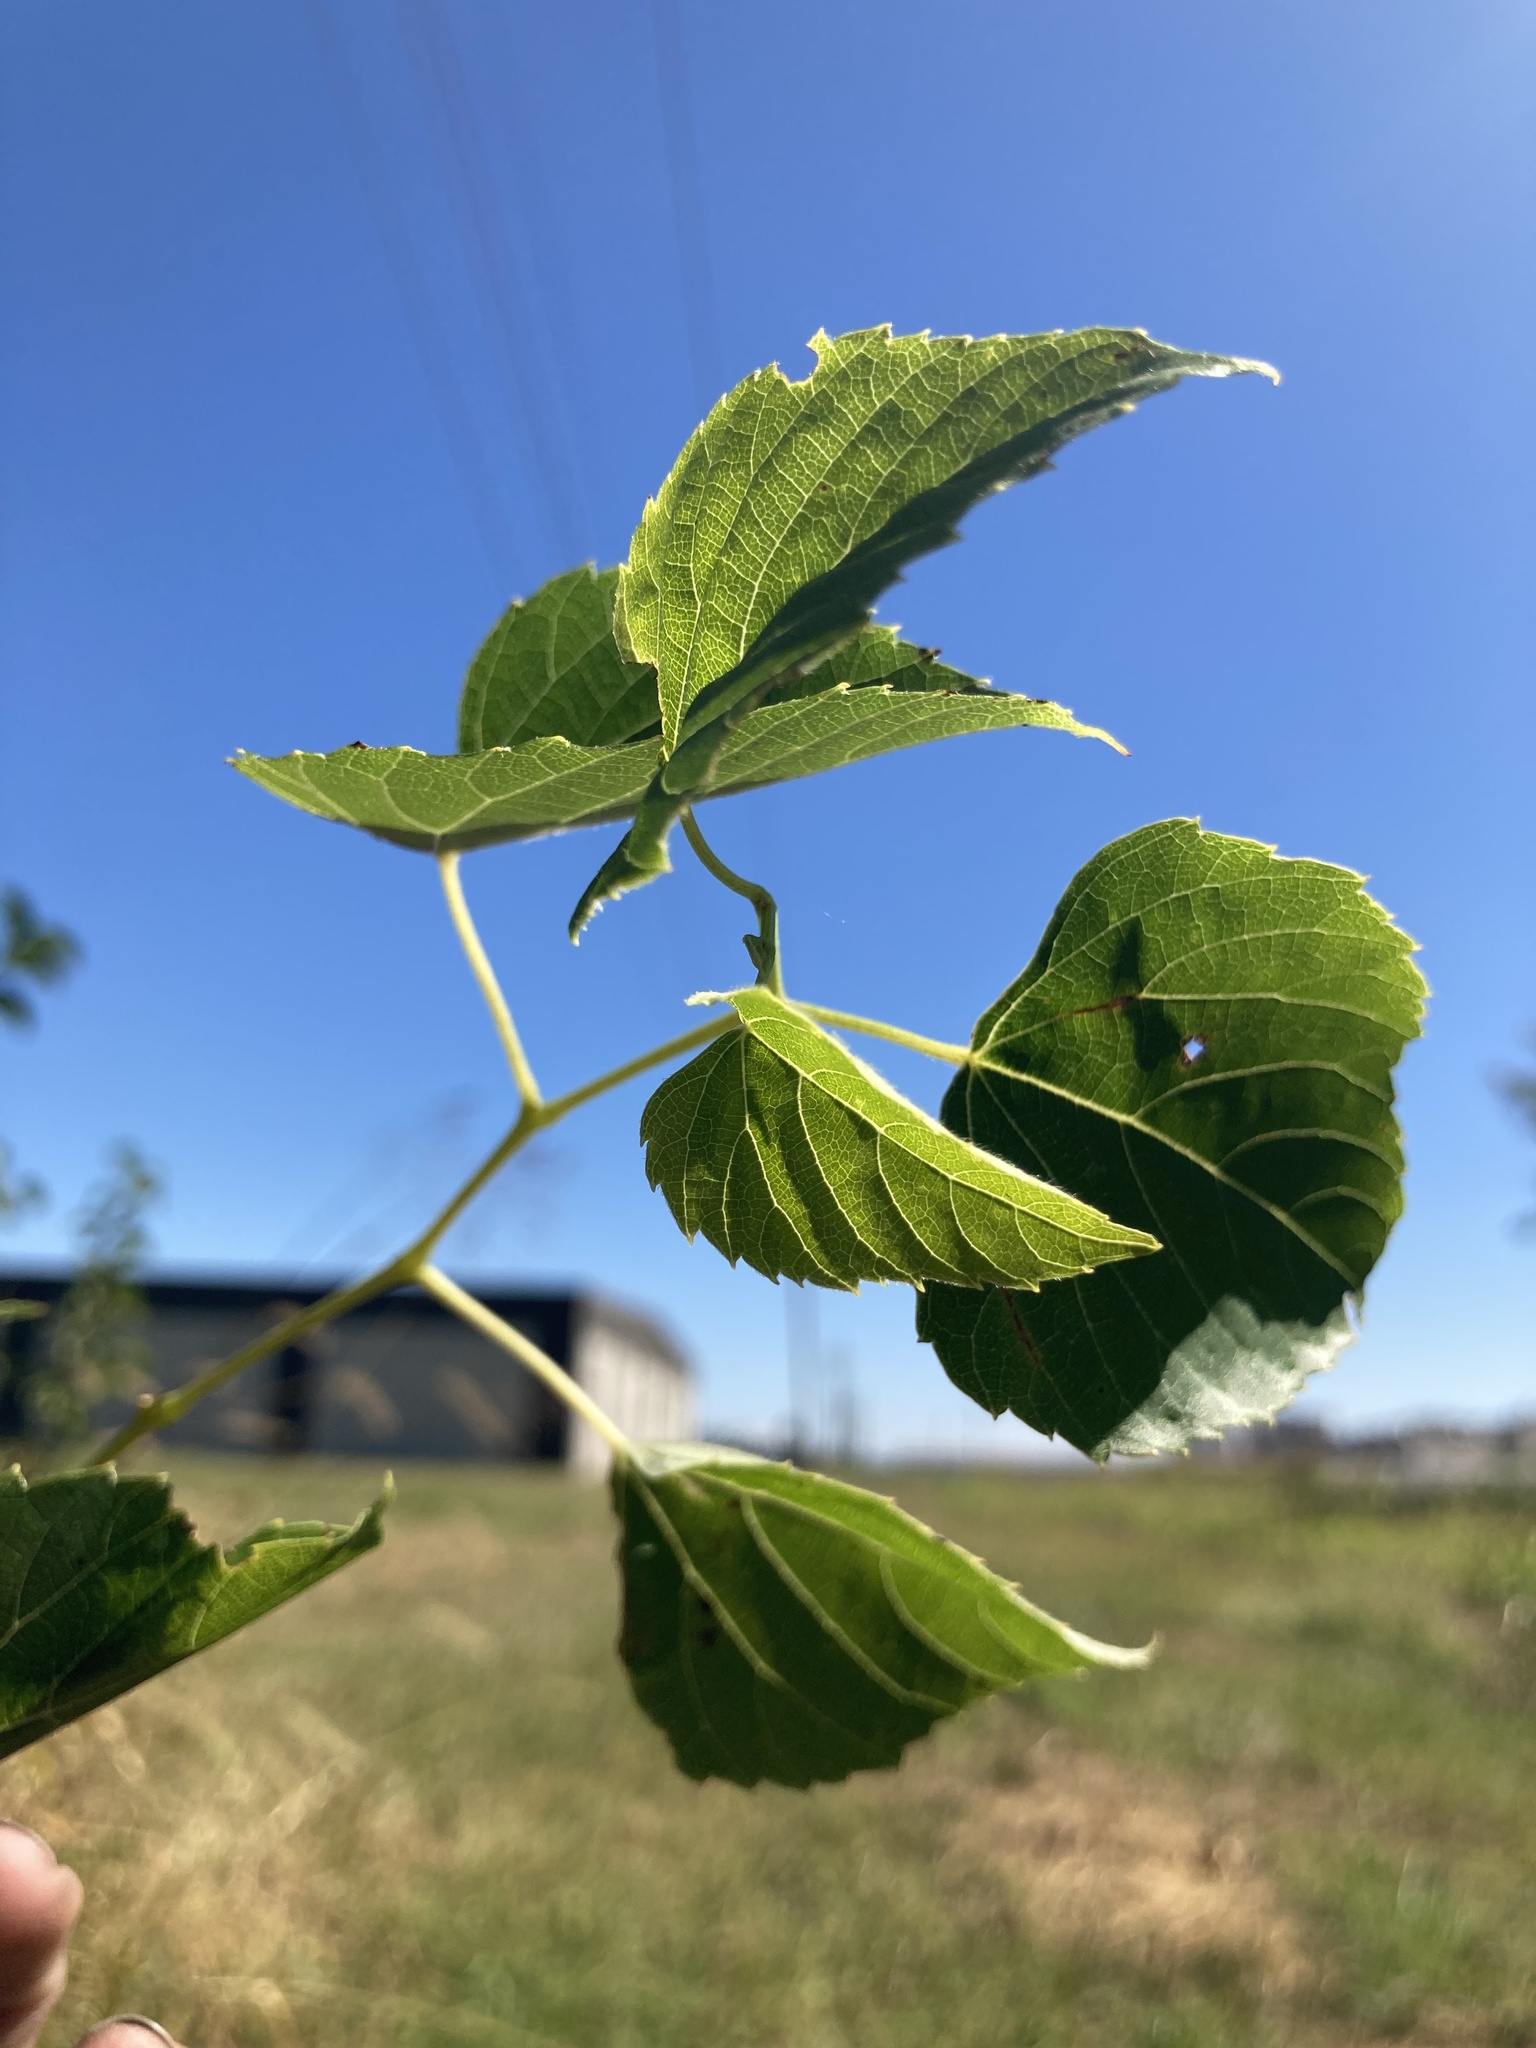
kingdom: Plantae
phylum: Tracheophyta
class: Magnoliopsida
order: Vitales
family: Vitaceae
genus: Ampelopsis
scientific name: Ampelopsis cordata
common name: Heart-leaf ampelopsis
